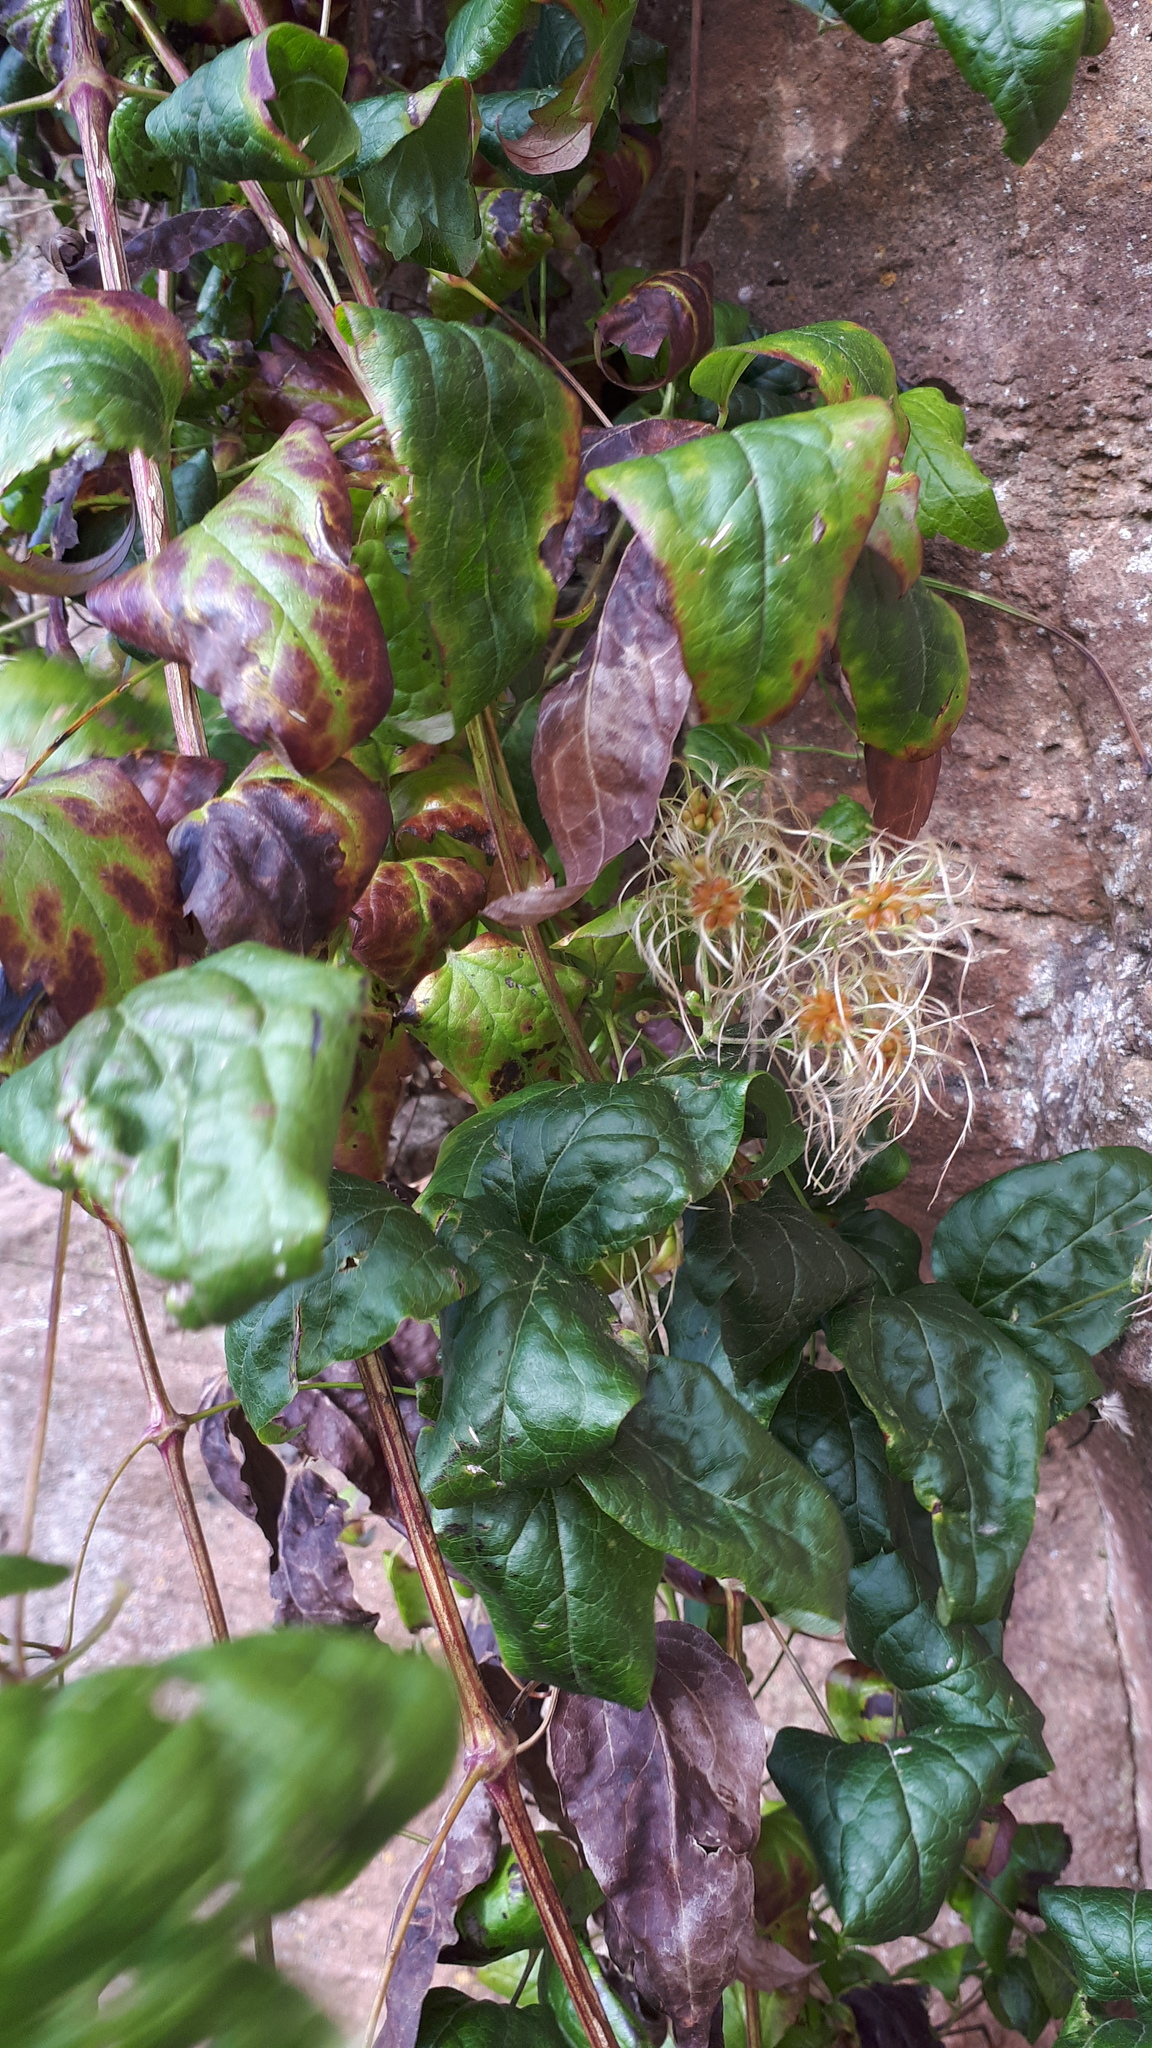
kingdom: Plantae
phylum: Tracheophyta
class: Magnoliopsida
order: Ranunculales
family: Ranunculaceae
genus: Clematis
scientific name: Clematis vitalba
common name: Evergreen clematis
